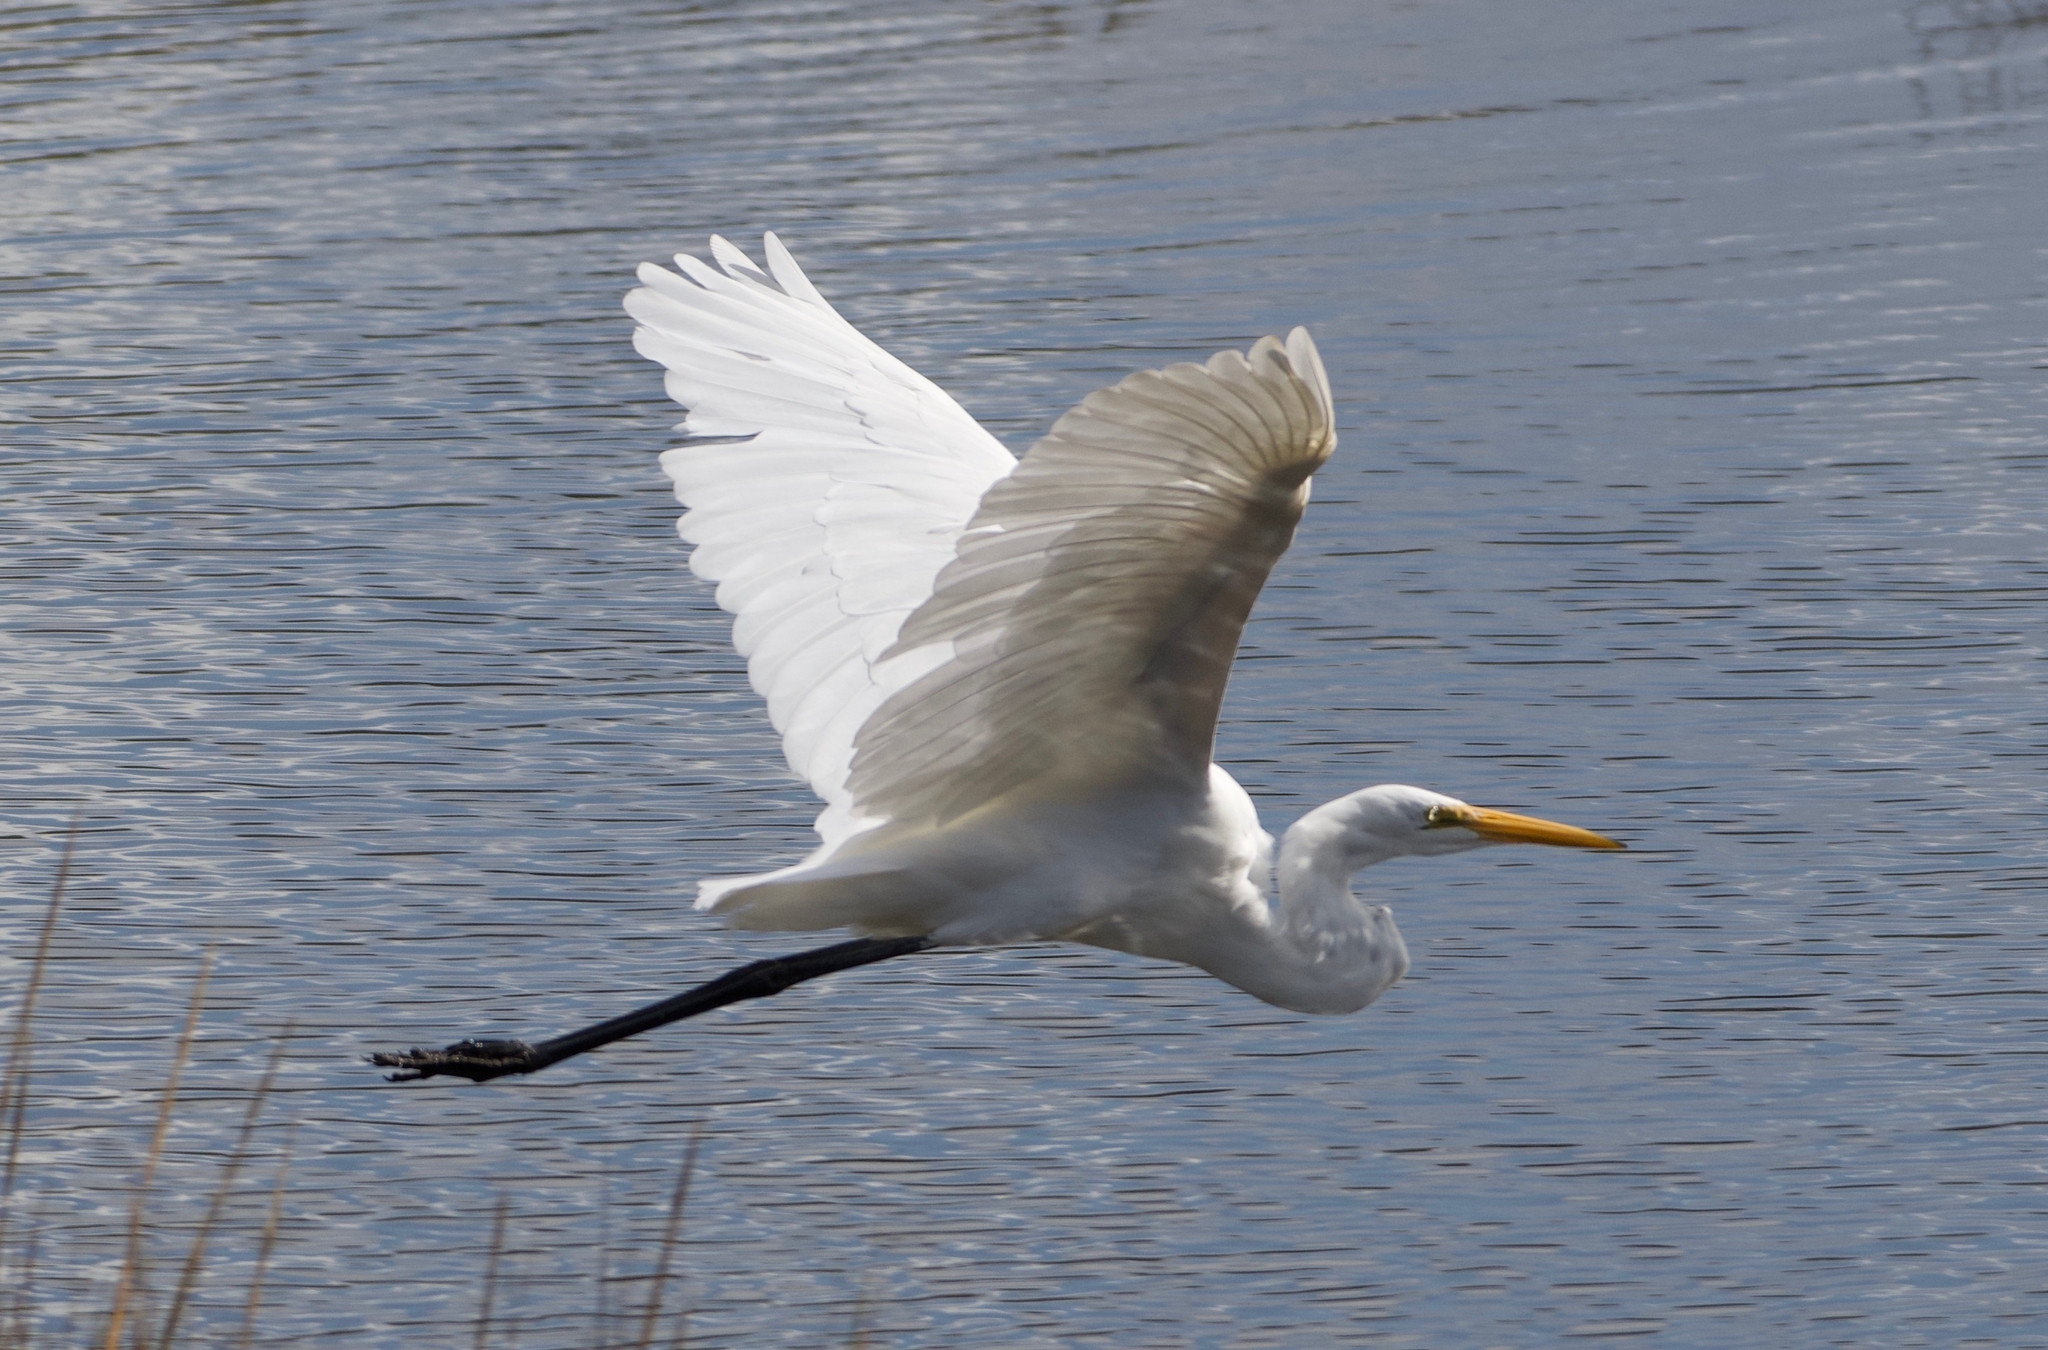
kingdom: Animalia
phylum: Chordata
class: Aves
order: Pelecaniformes
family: Ardeidae
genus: Ardea
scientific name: Ardea alba
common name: Great egret
